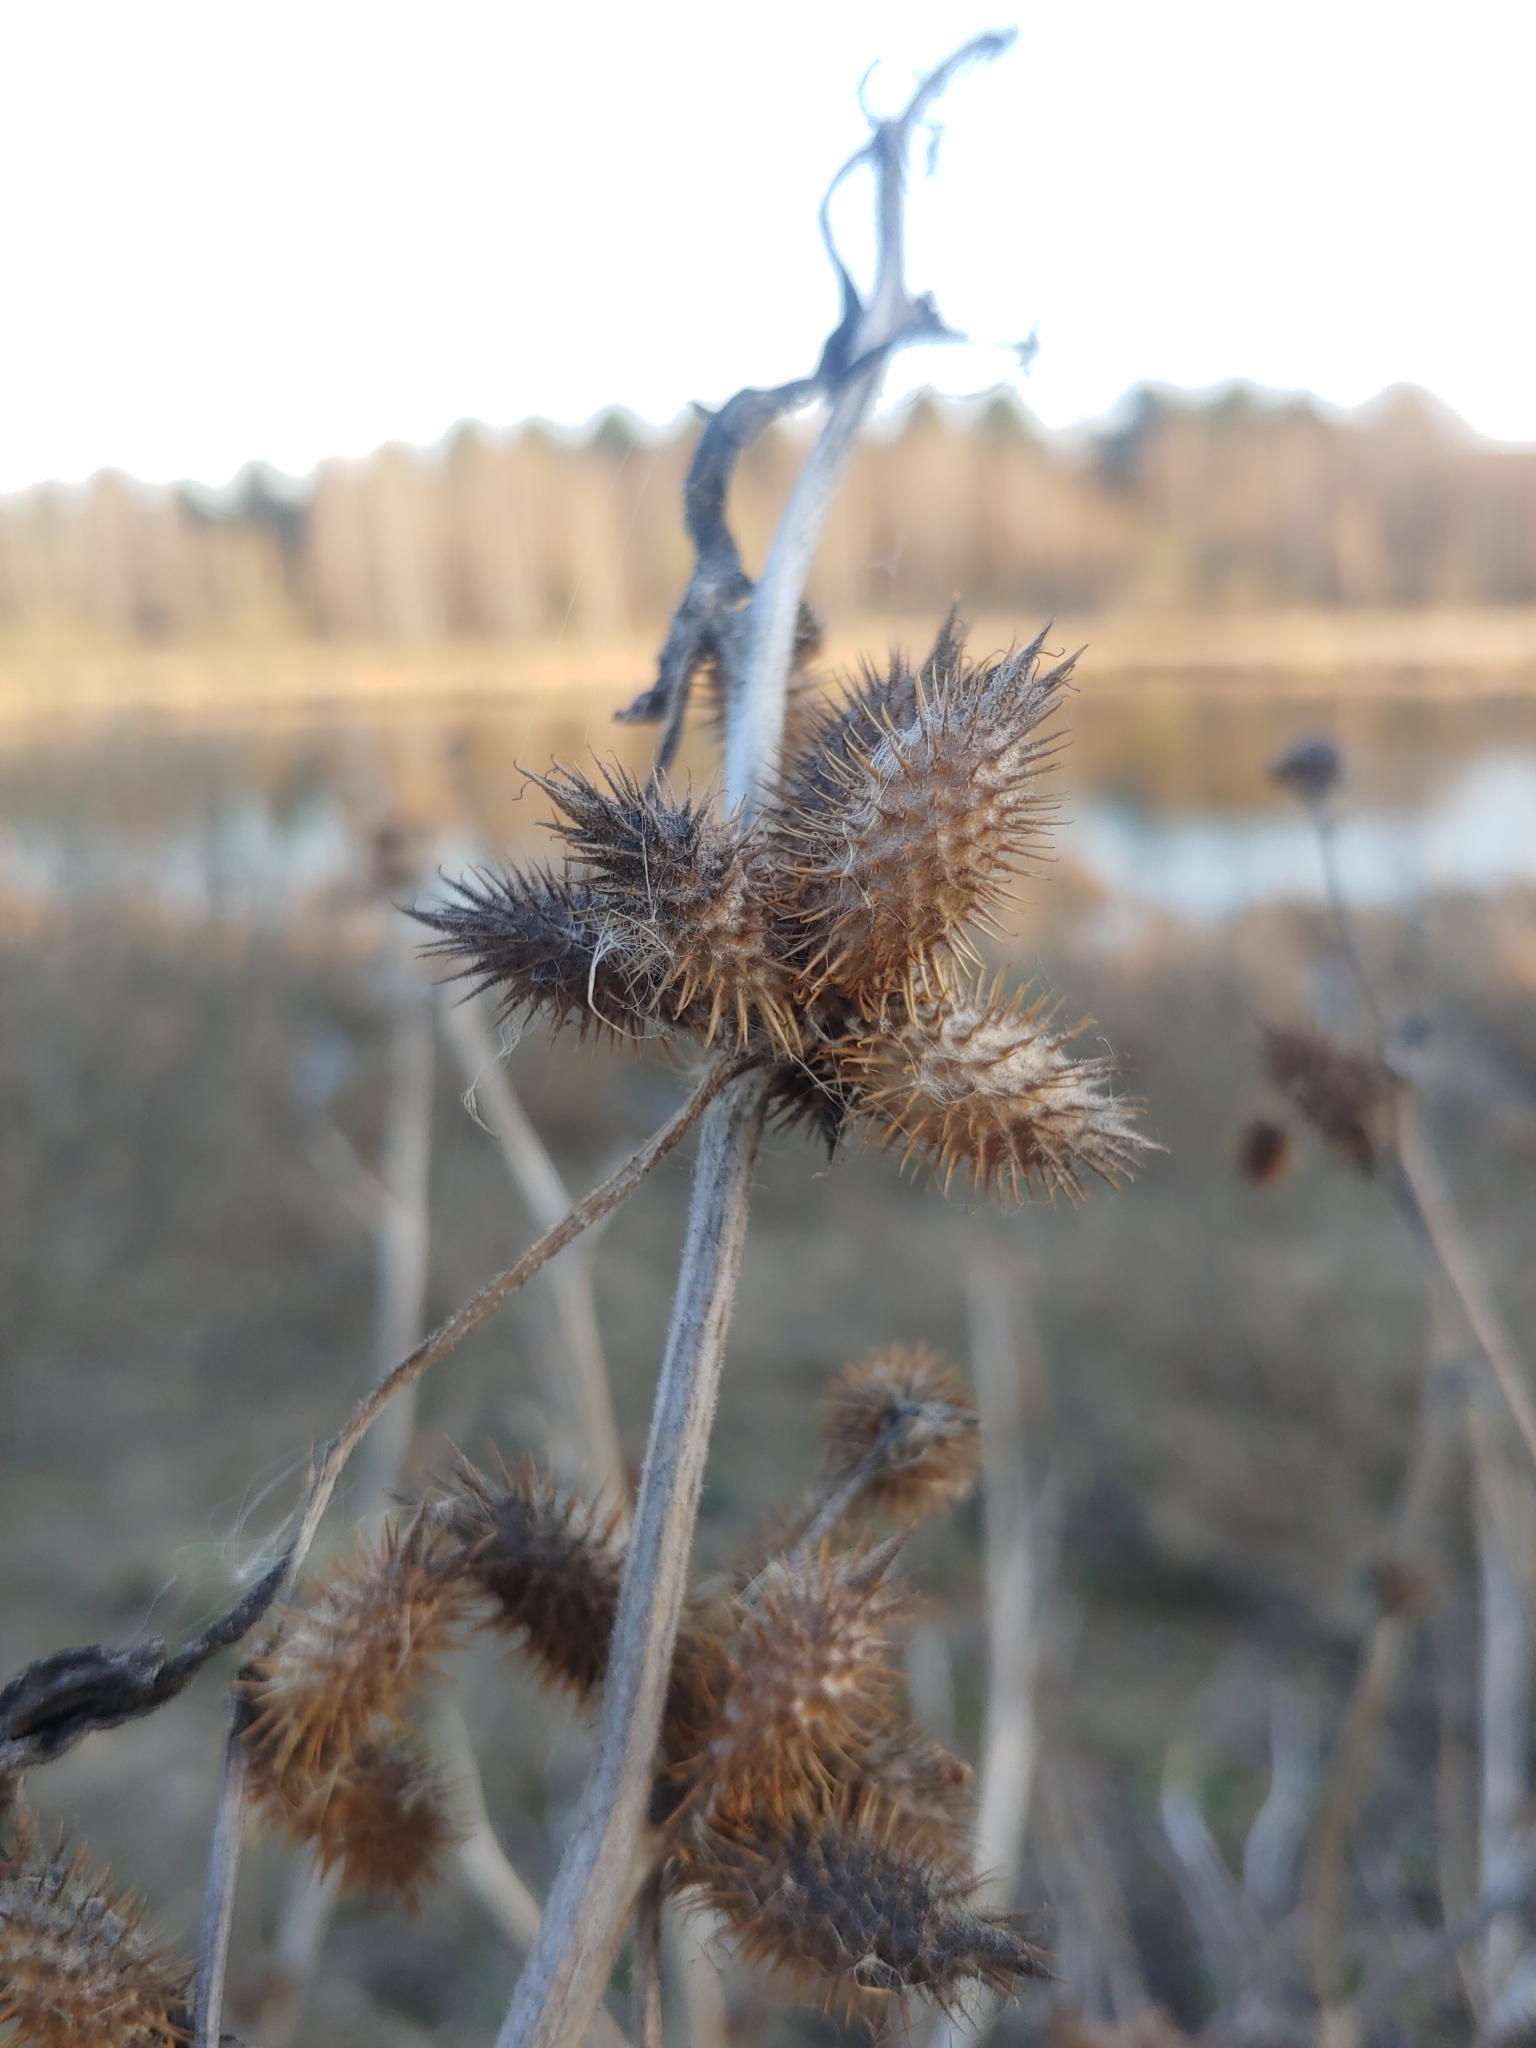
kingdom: Plantae
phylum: Tracheophyta
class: Magnoliopsida
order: Asterales
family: Asteraceae
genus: Xanthium
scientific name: Xanthium orientale
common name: Californian burr
